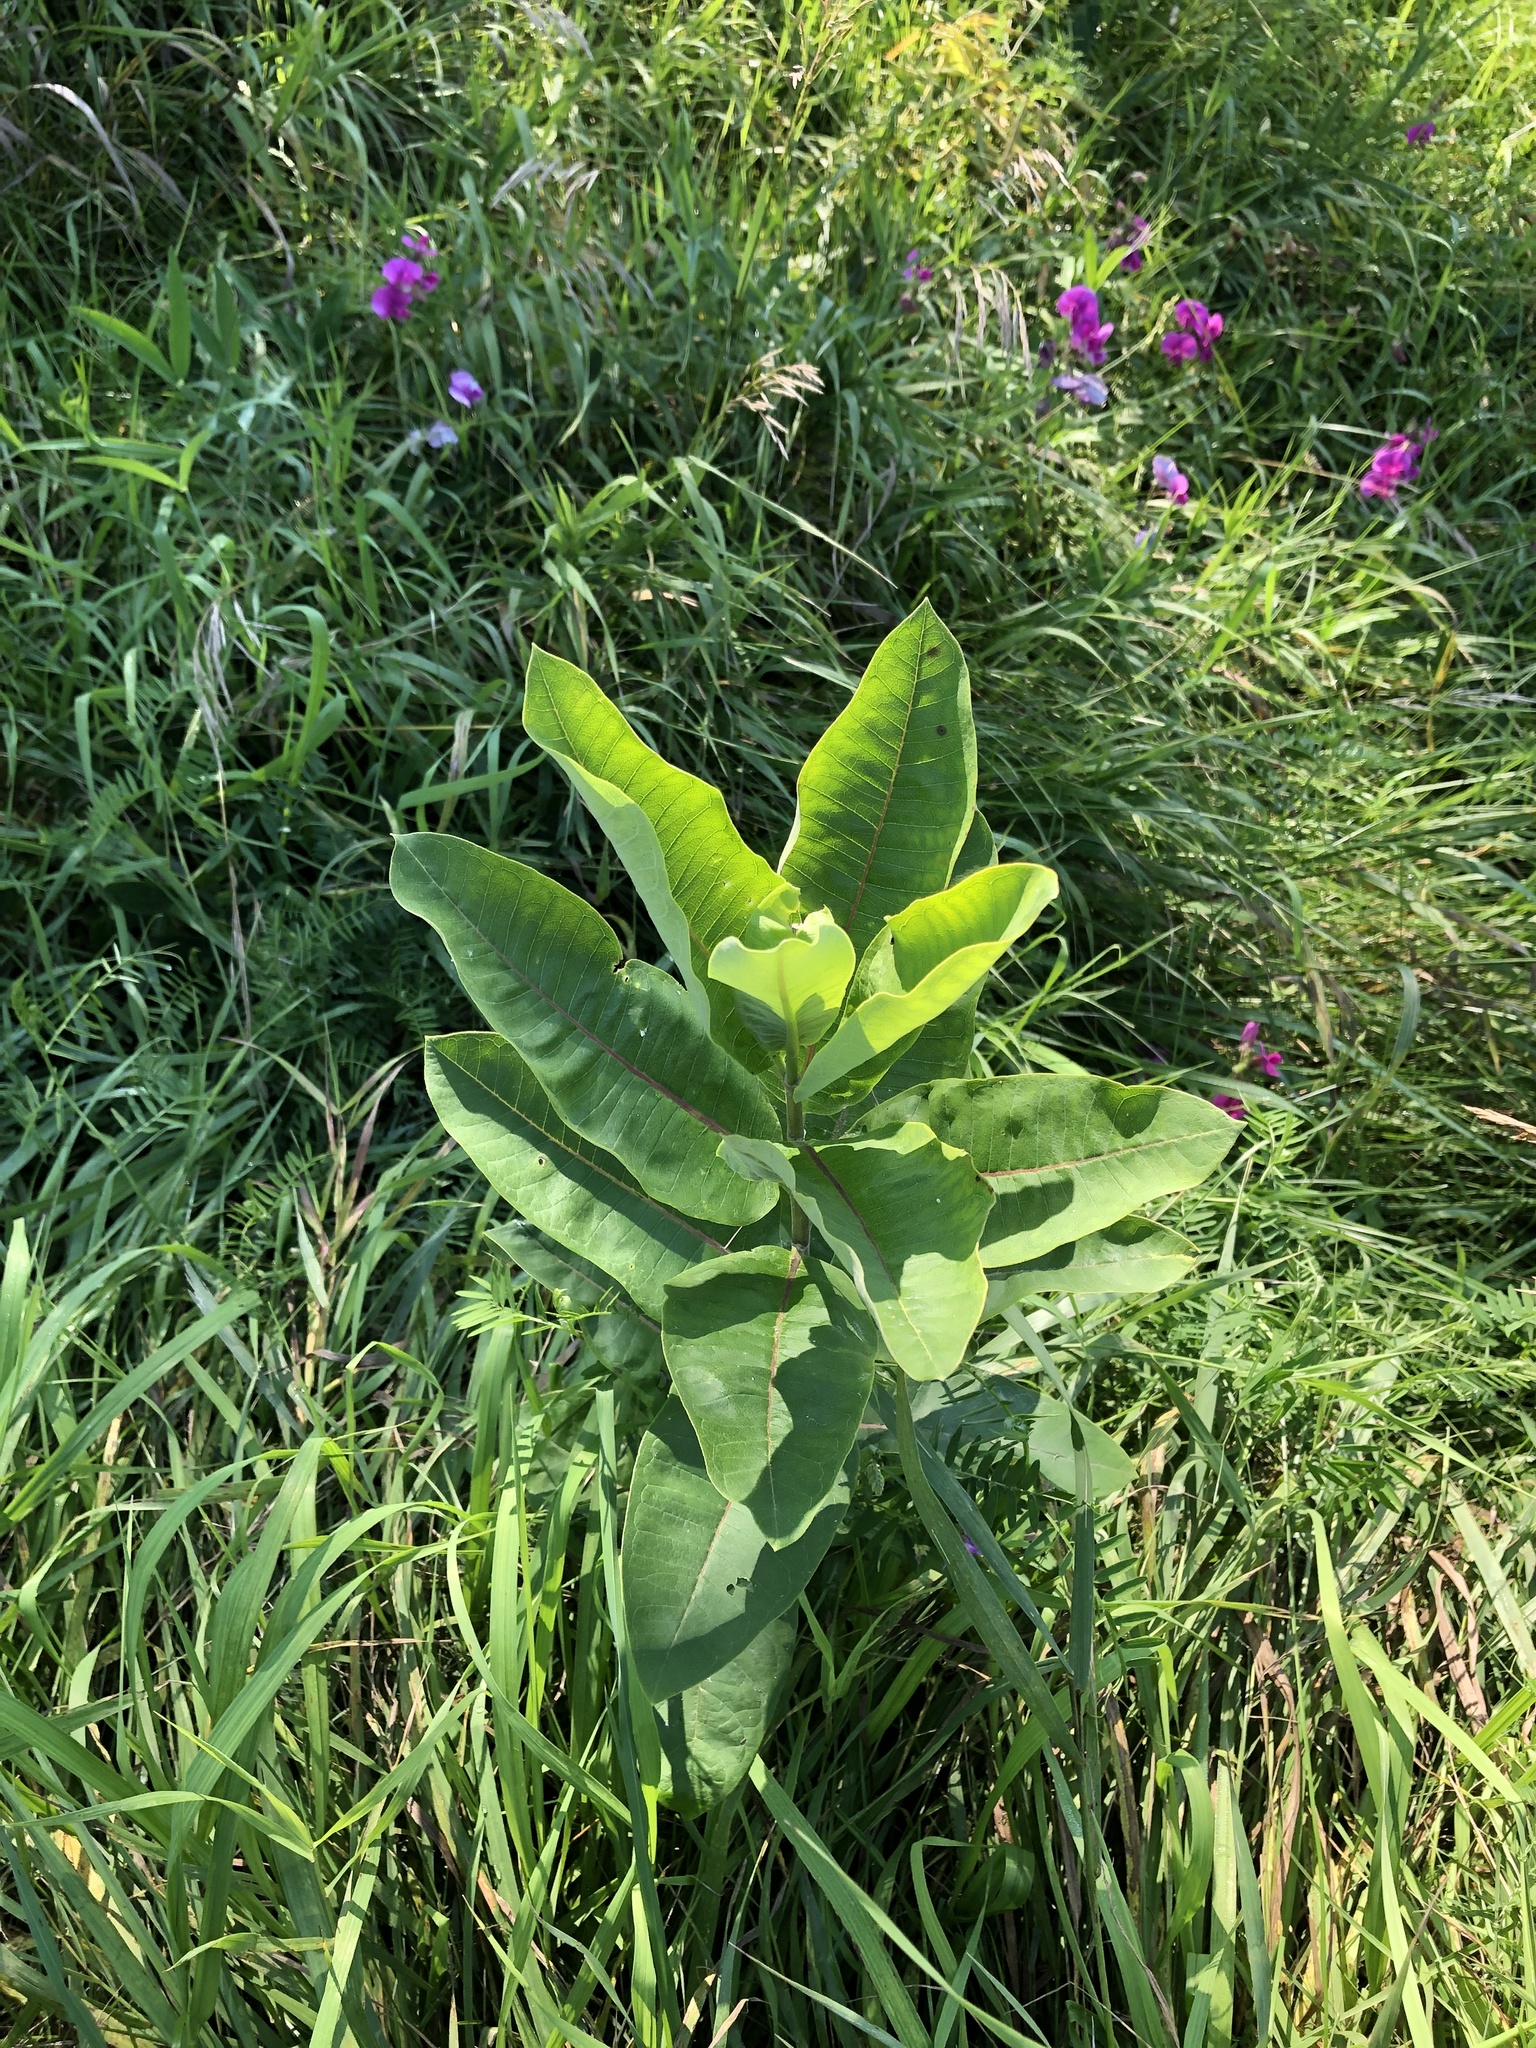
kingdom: Plantae
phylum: Tracheophyta
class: Magnoliopsida
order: Gentianales
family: Apocynaceae
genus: Asclepias
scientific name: Asclepias syriaca
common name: Common milkweed
